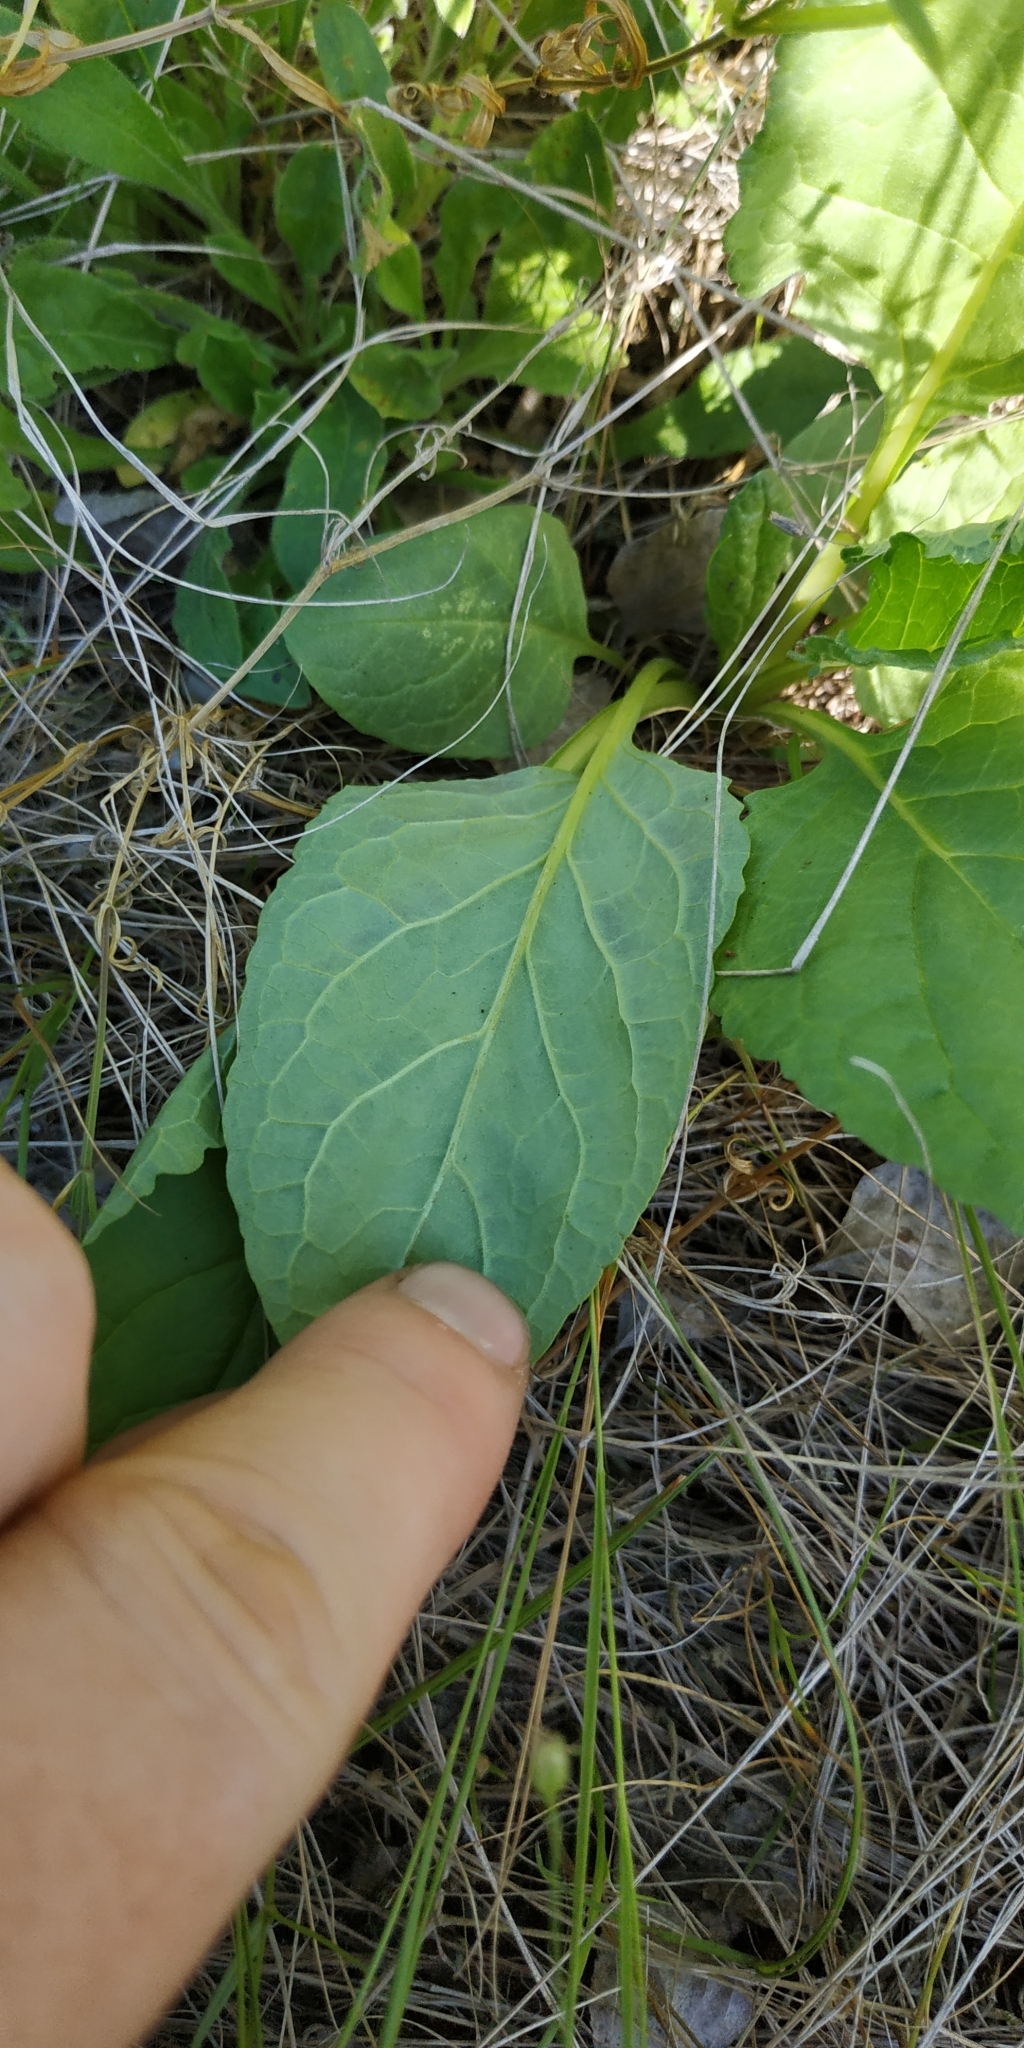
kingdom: Plantae
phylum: Tracheophyta
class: Magnoliopsida
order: Asterales
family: Asteraceae
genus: Jacobaea
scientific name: Jacobaea vulgaris
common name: Stinking willie
